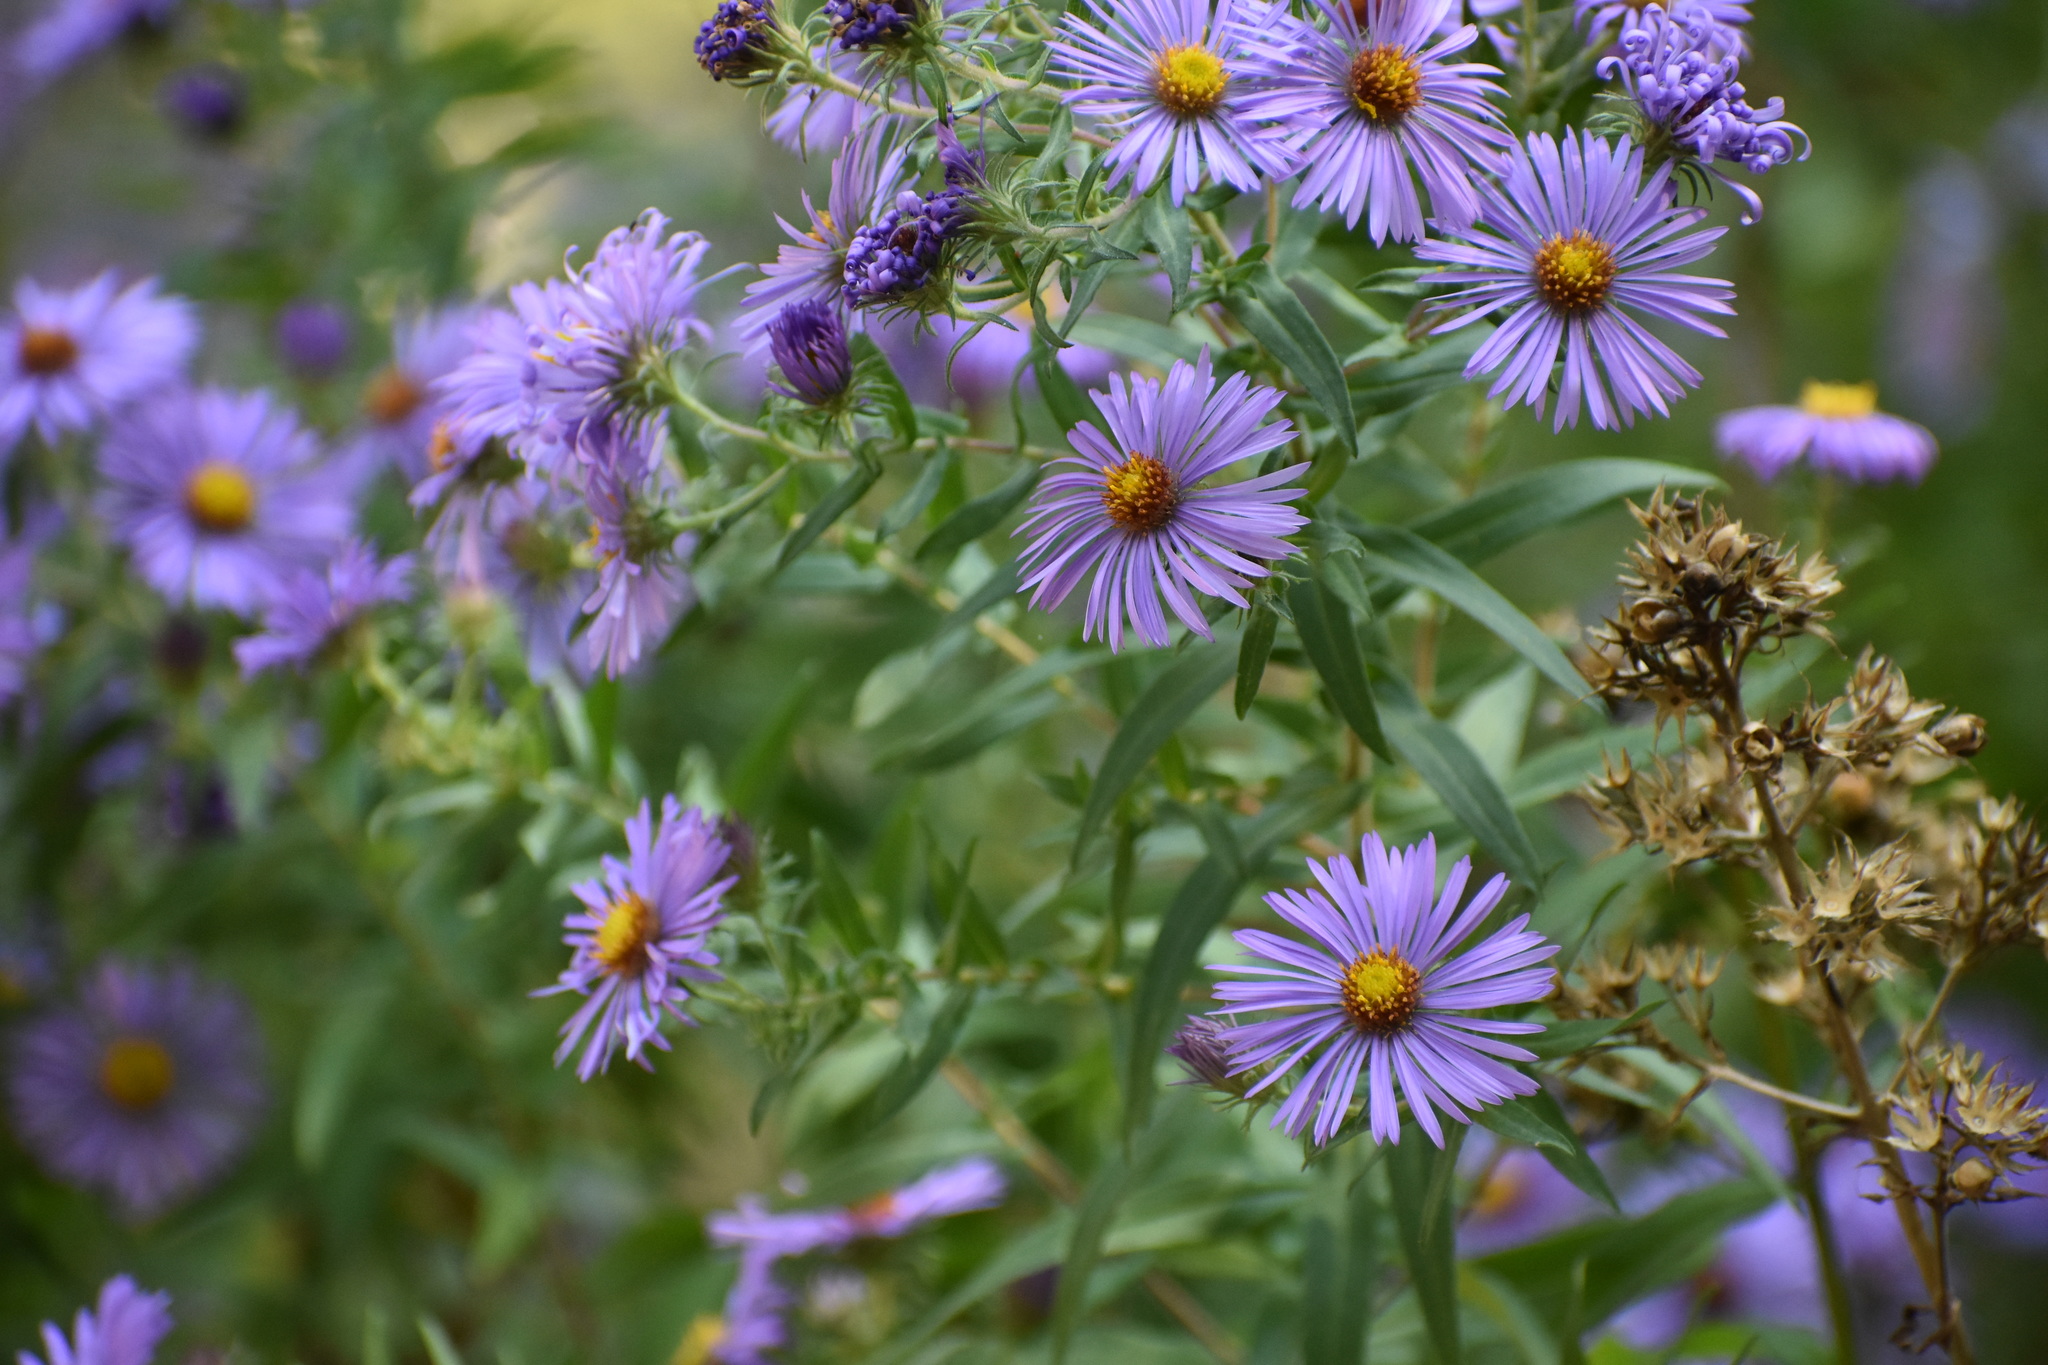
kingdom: Plantae
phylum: Tracheophyta
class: Magnoliopsida
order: Asterales
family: Asteraceae
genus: Symphyotrichum
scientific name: Symphyotrichum novae-angliae
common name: Michaelmas daisy
